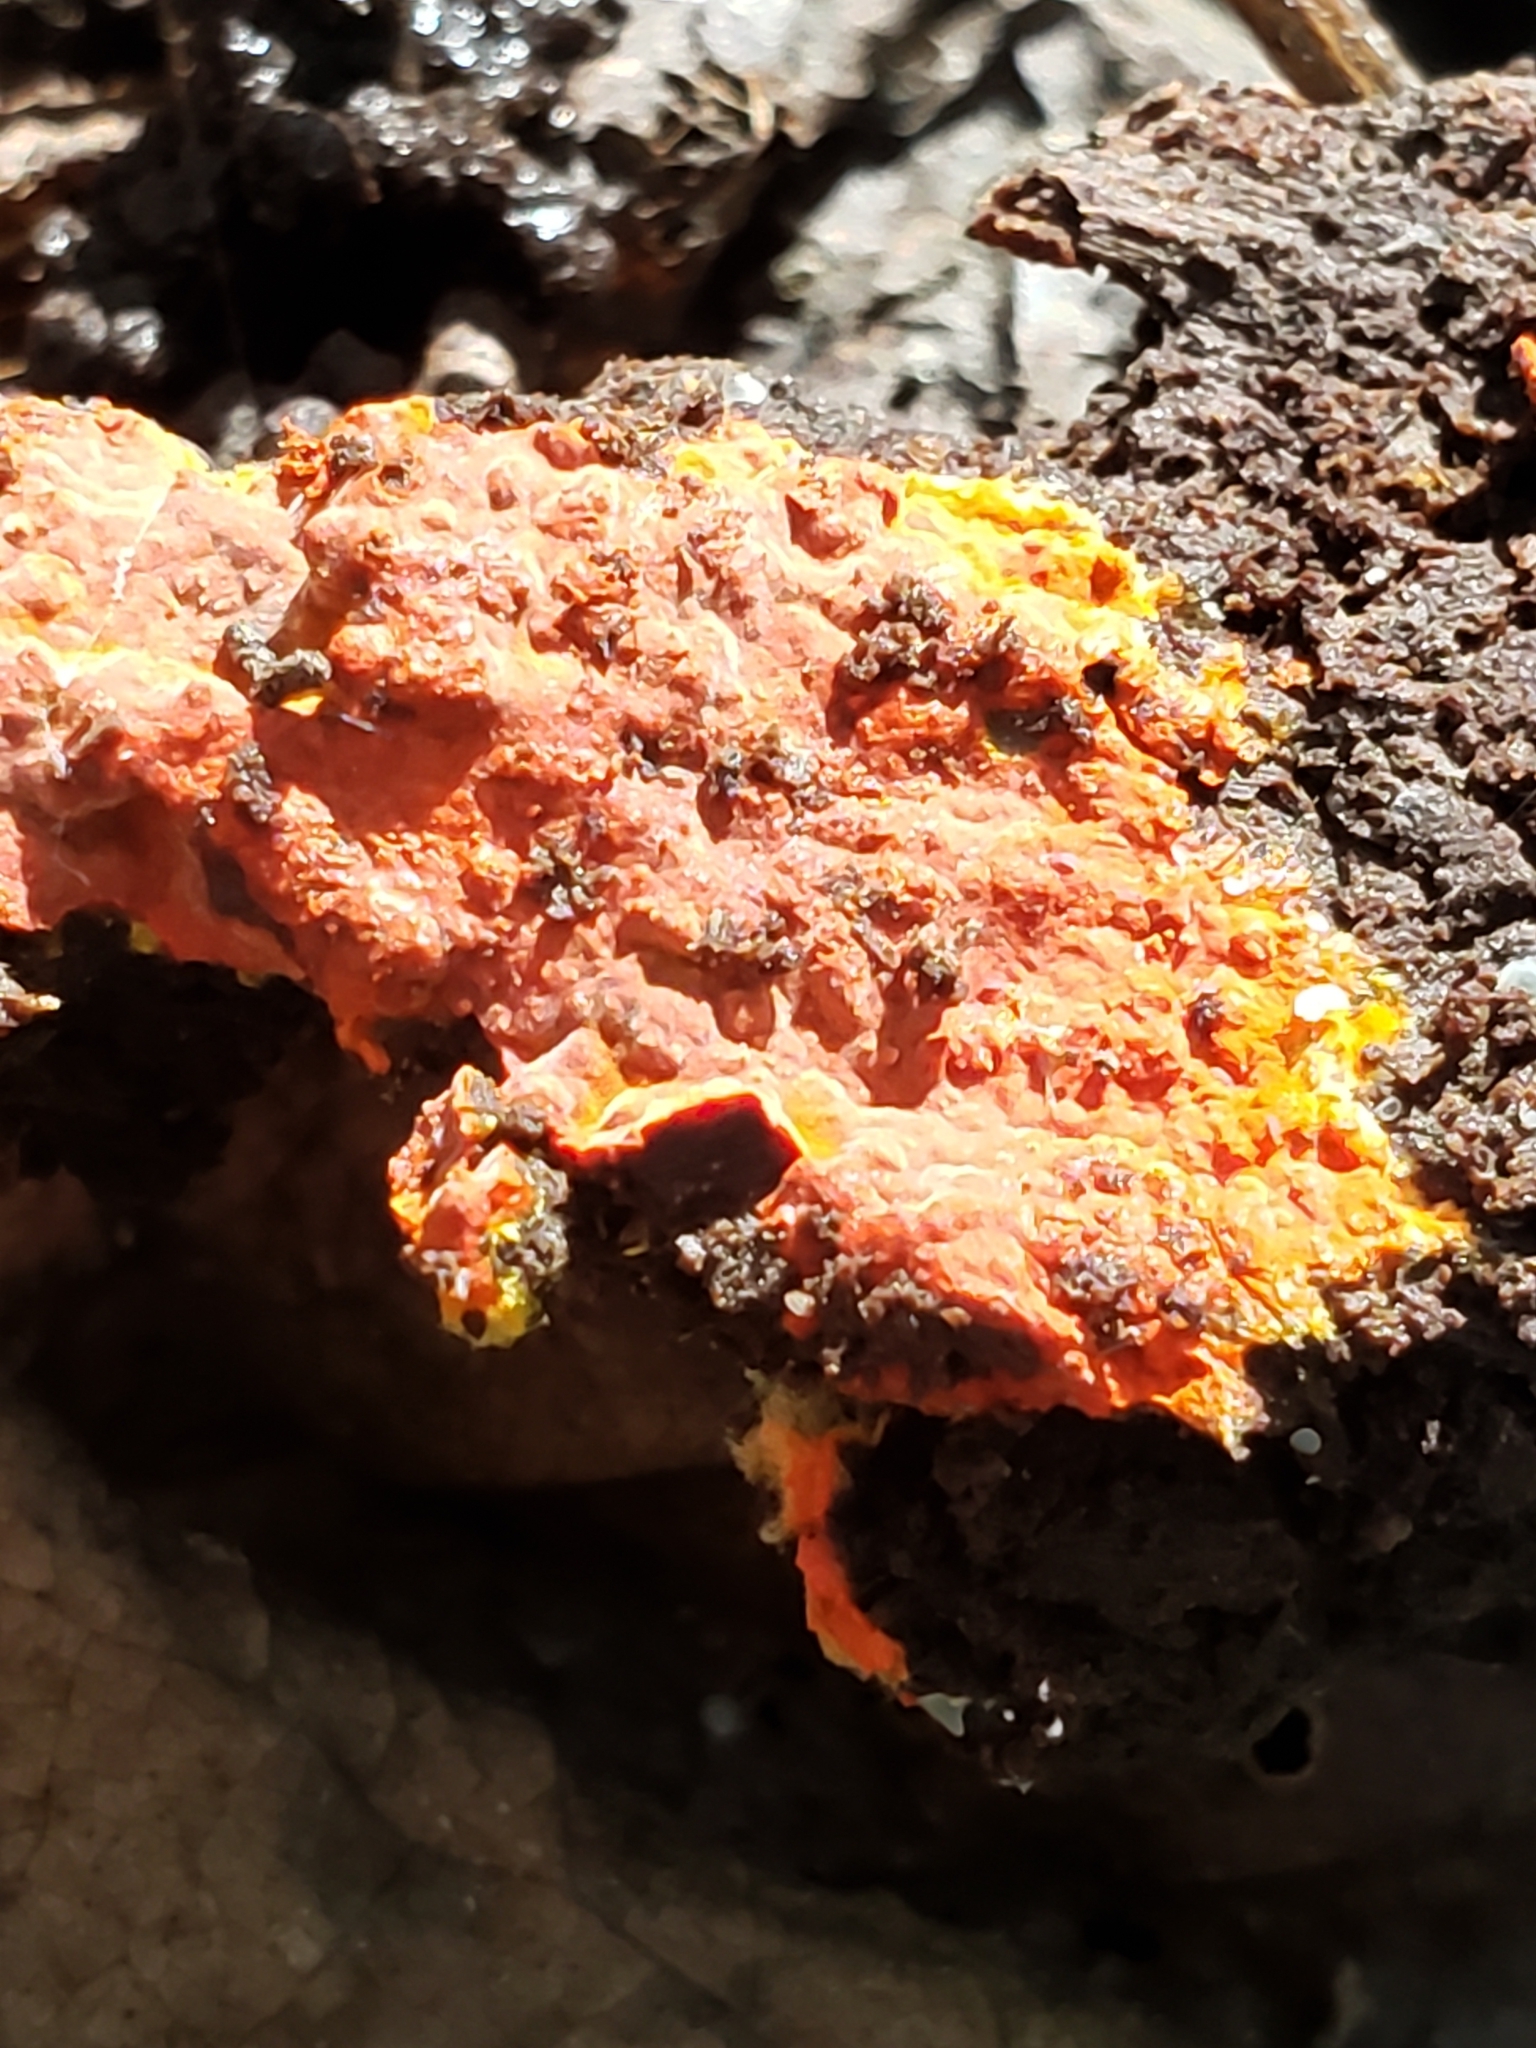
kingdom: Fungi
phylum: Basidiomycota
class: Agaricomycetes
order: Polyporales
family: Meruliaceae
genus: Phlebia
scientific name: Phlebia coccineofulva
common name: Scarlet waxcrust
